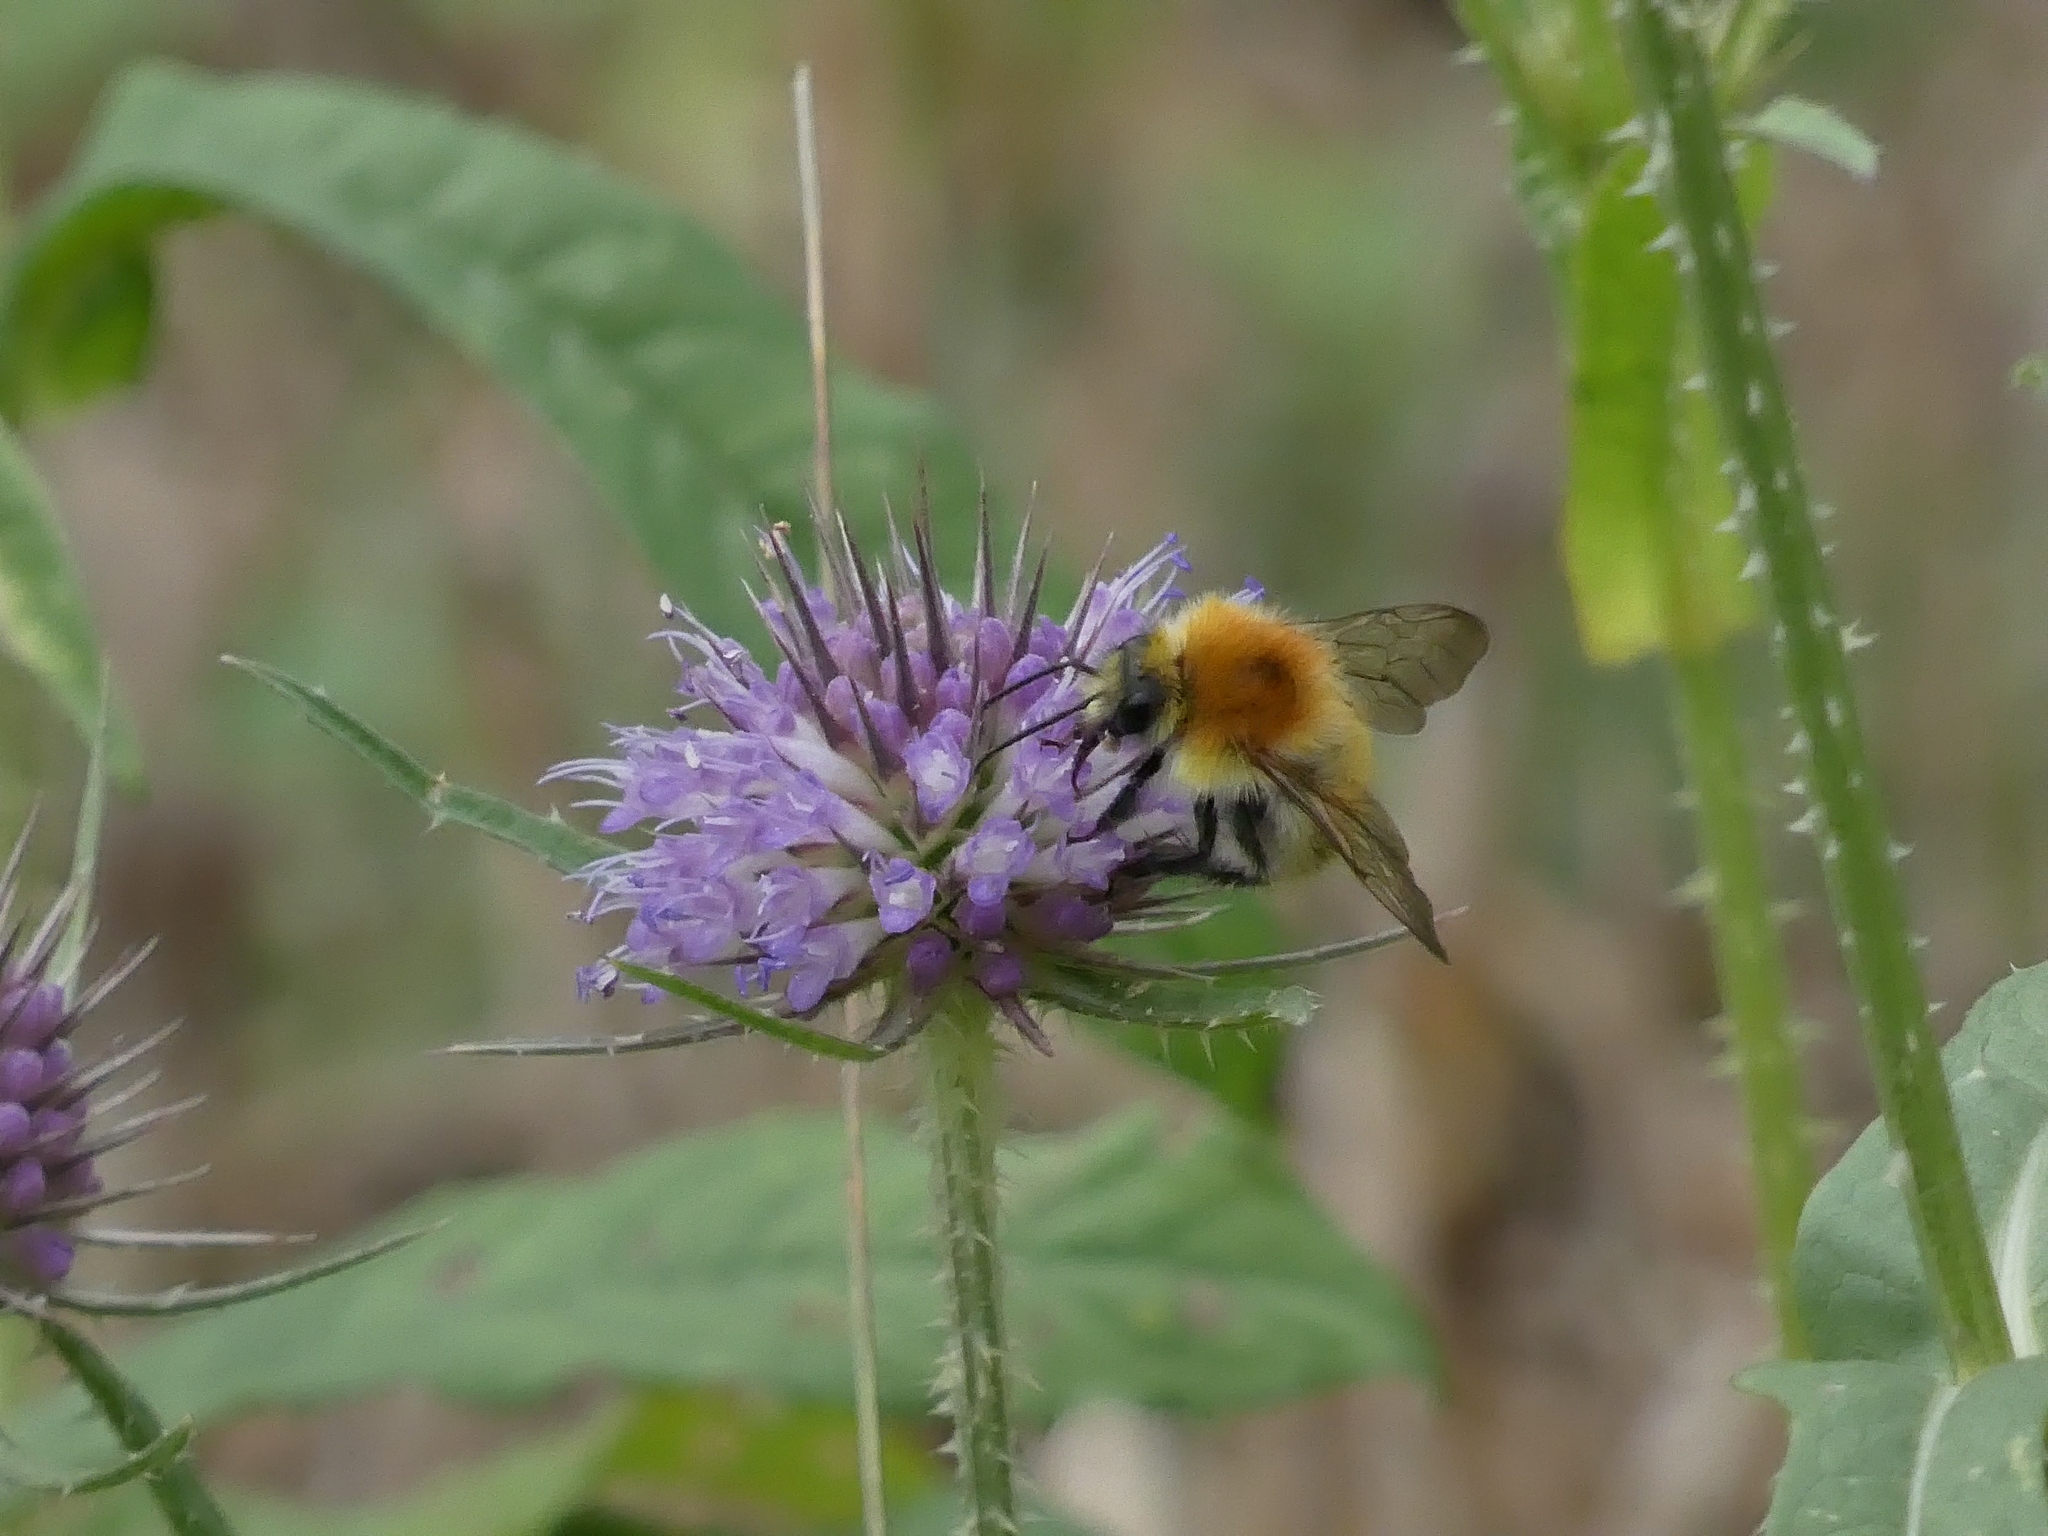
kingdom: Animalia
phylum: Arthropoda
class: Insecta
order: Hymenoptera
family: Apidae
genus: Bombus
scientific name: Bombus pascuorum
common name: Common carder bee
